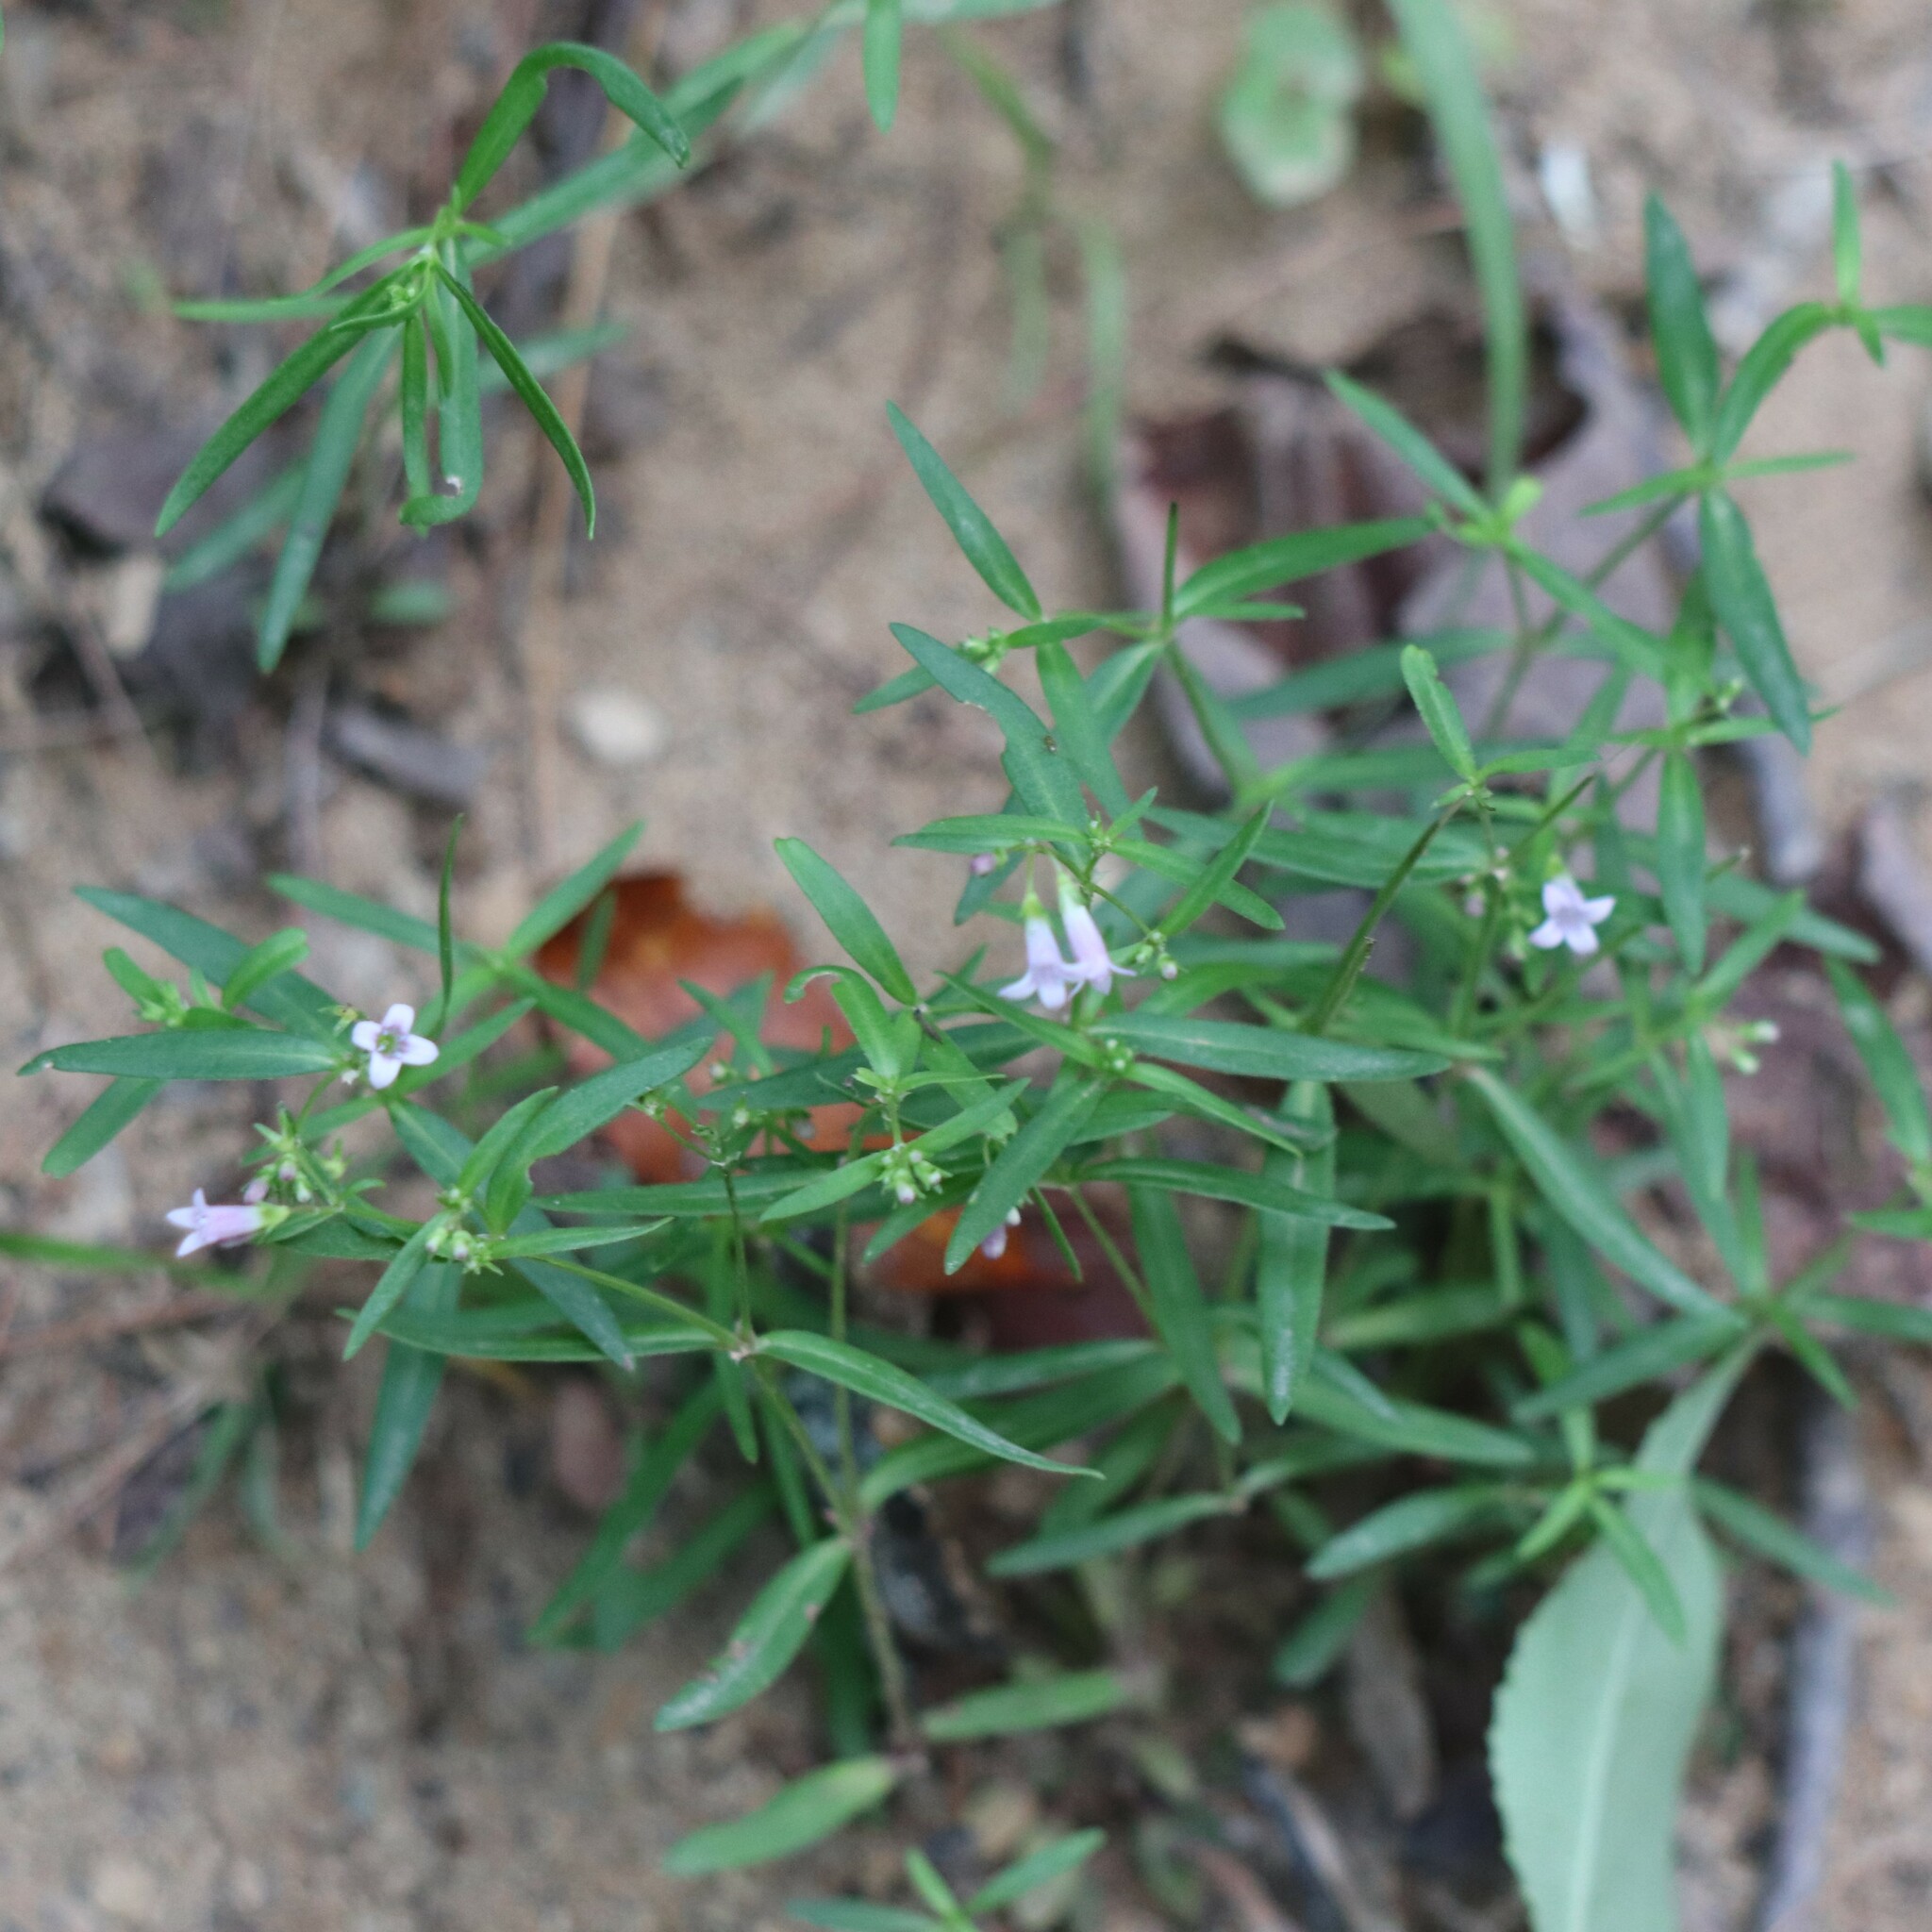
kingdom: Plantae
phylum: Tracheophyta
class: Magnoliopsida
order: Gentianales
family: Rubiaceae
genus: Houstonia
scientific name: Houstonia longifolia
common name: Long-leaved bluets
